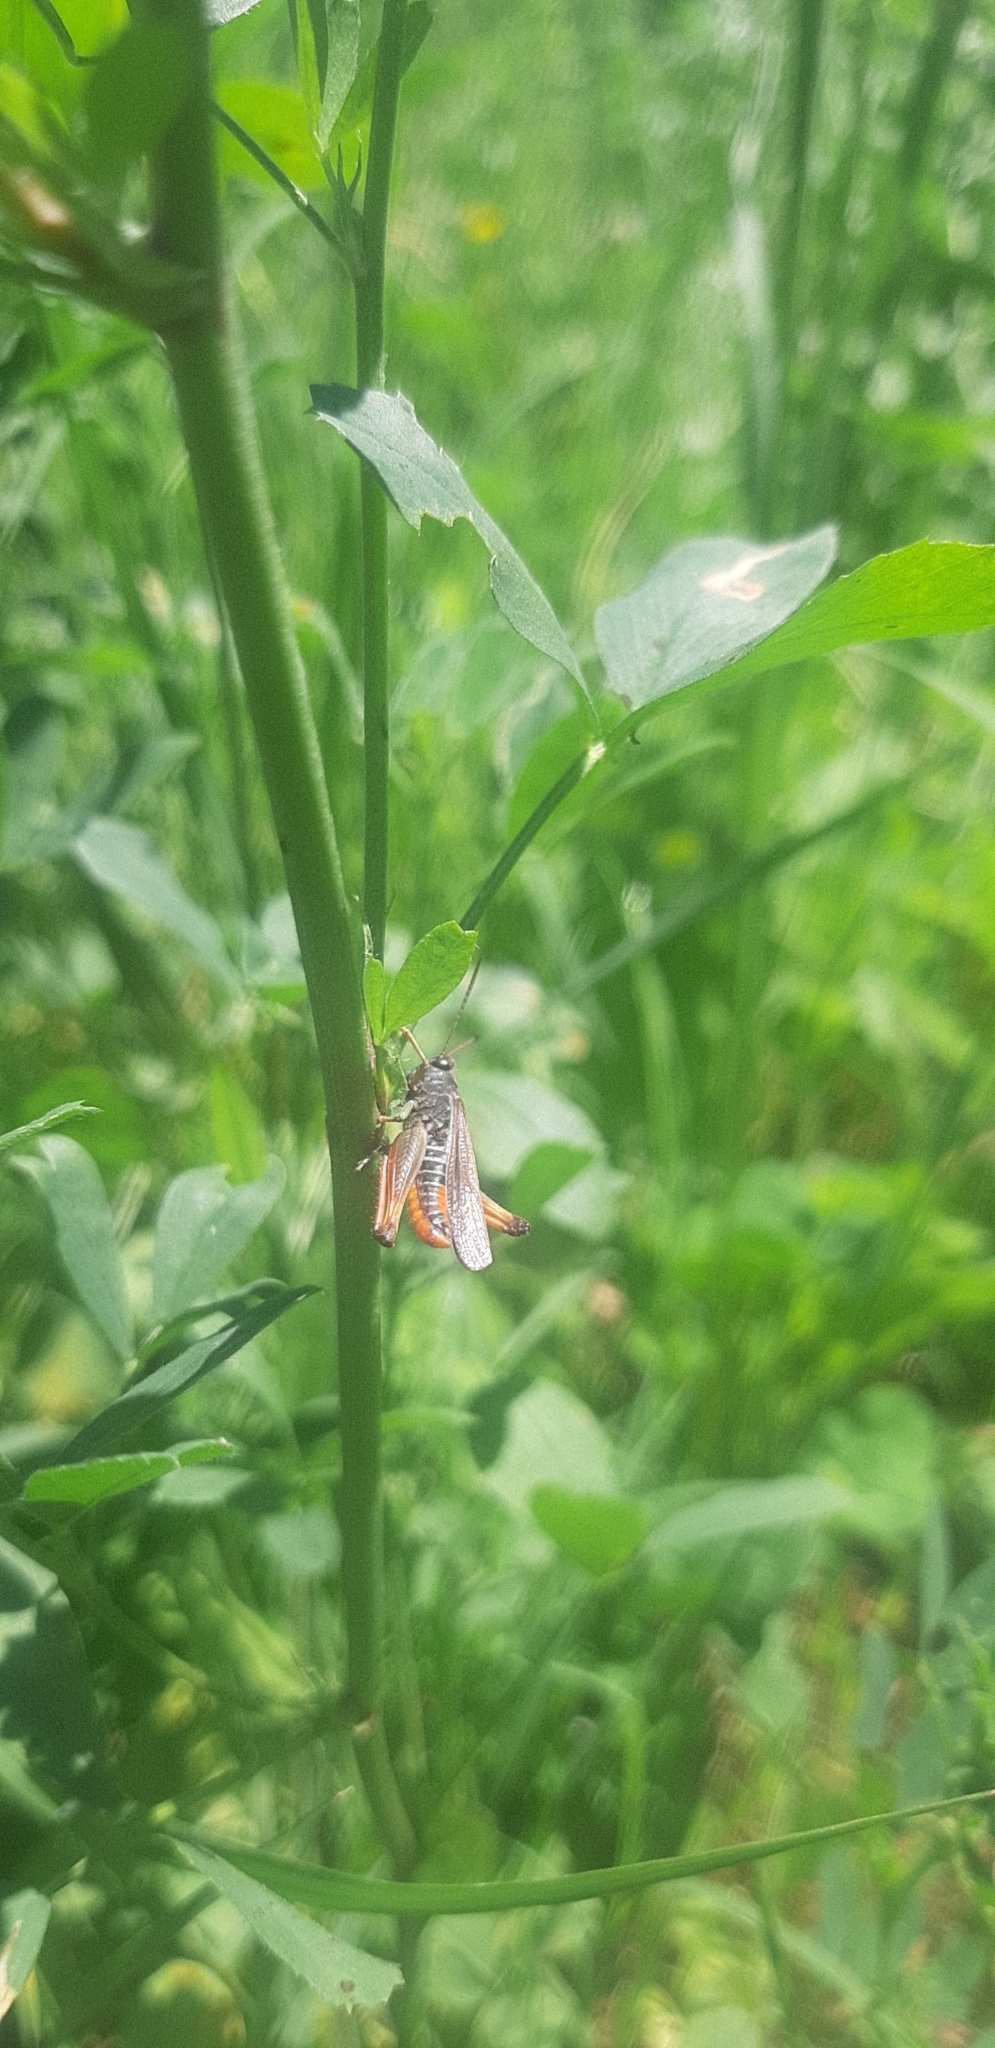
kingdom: Animalia
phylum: Arthropoda
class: Insecta
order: Orthoptera
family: Acrididae
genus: Omocestus
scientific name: Omocestus rufipes
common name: Woodland grasshopper
